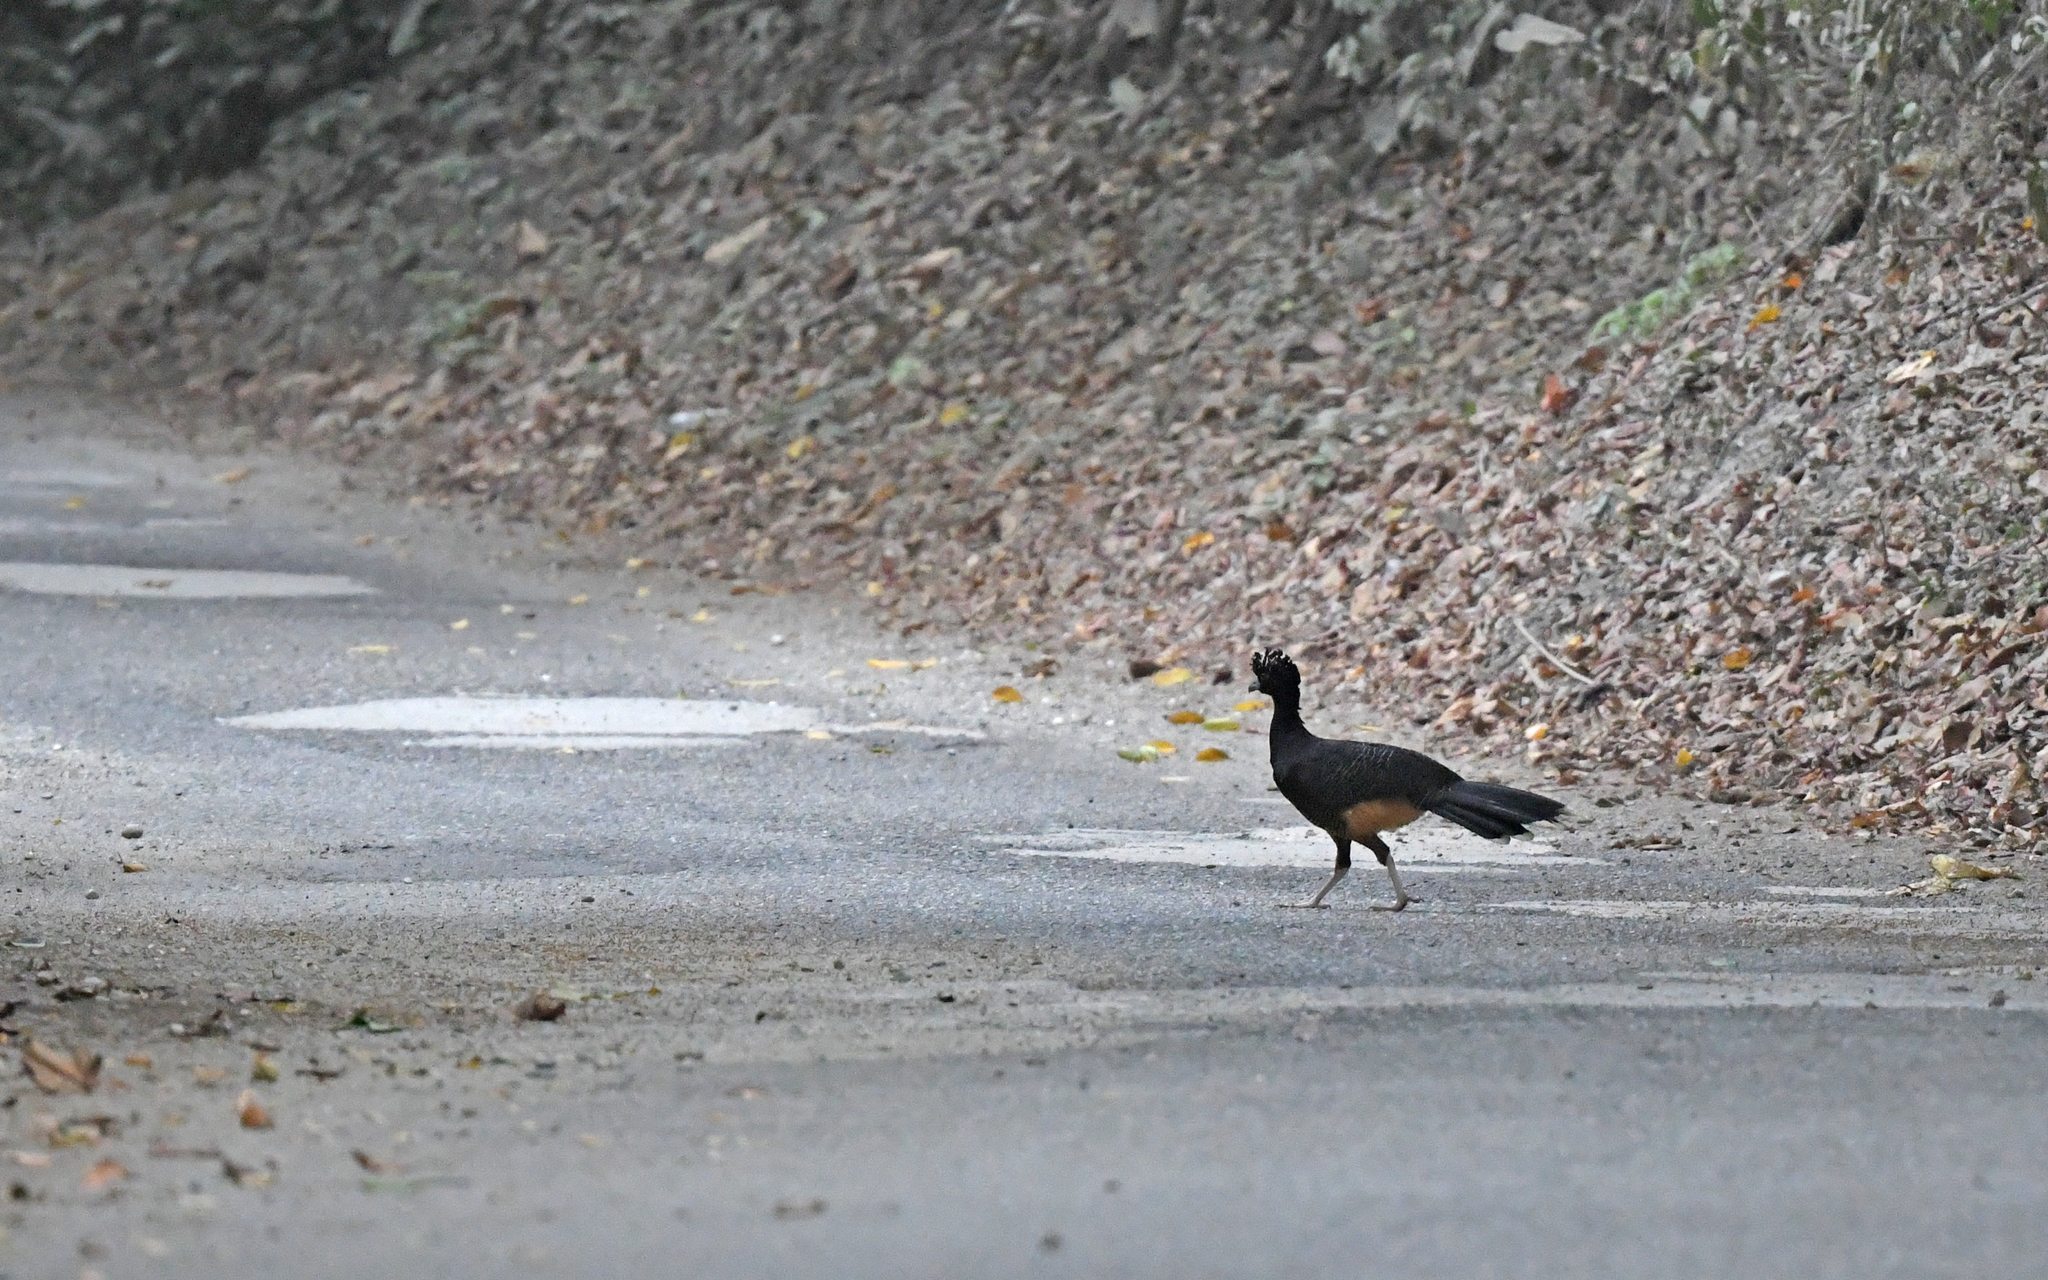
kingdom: Animalia
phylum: Chordata
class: Aves
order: Galliformes
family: Cracidae
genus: Crax
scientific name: Crax alberti
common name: Blue-billed curassow
